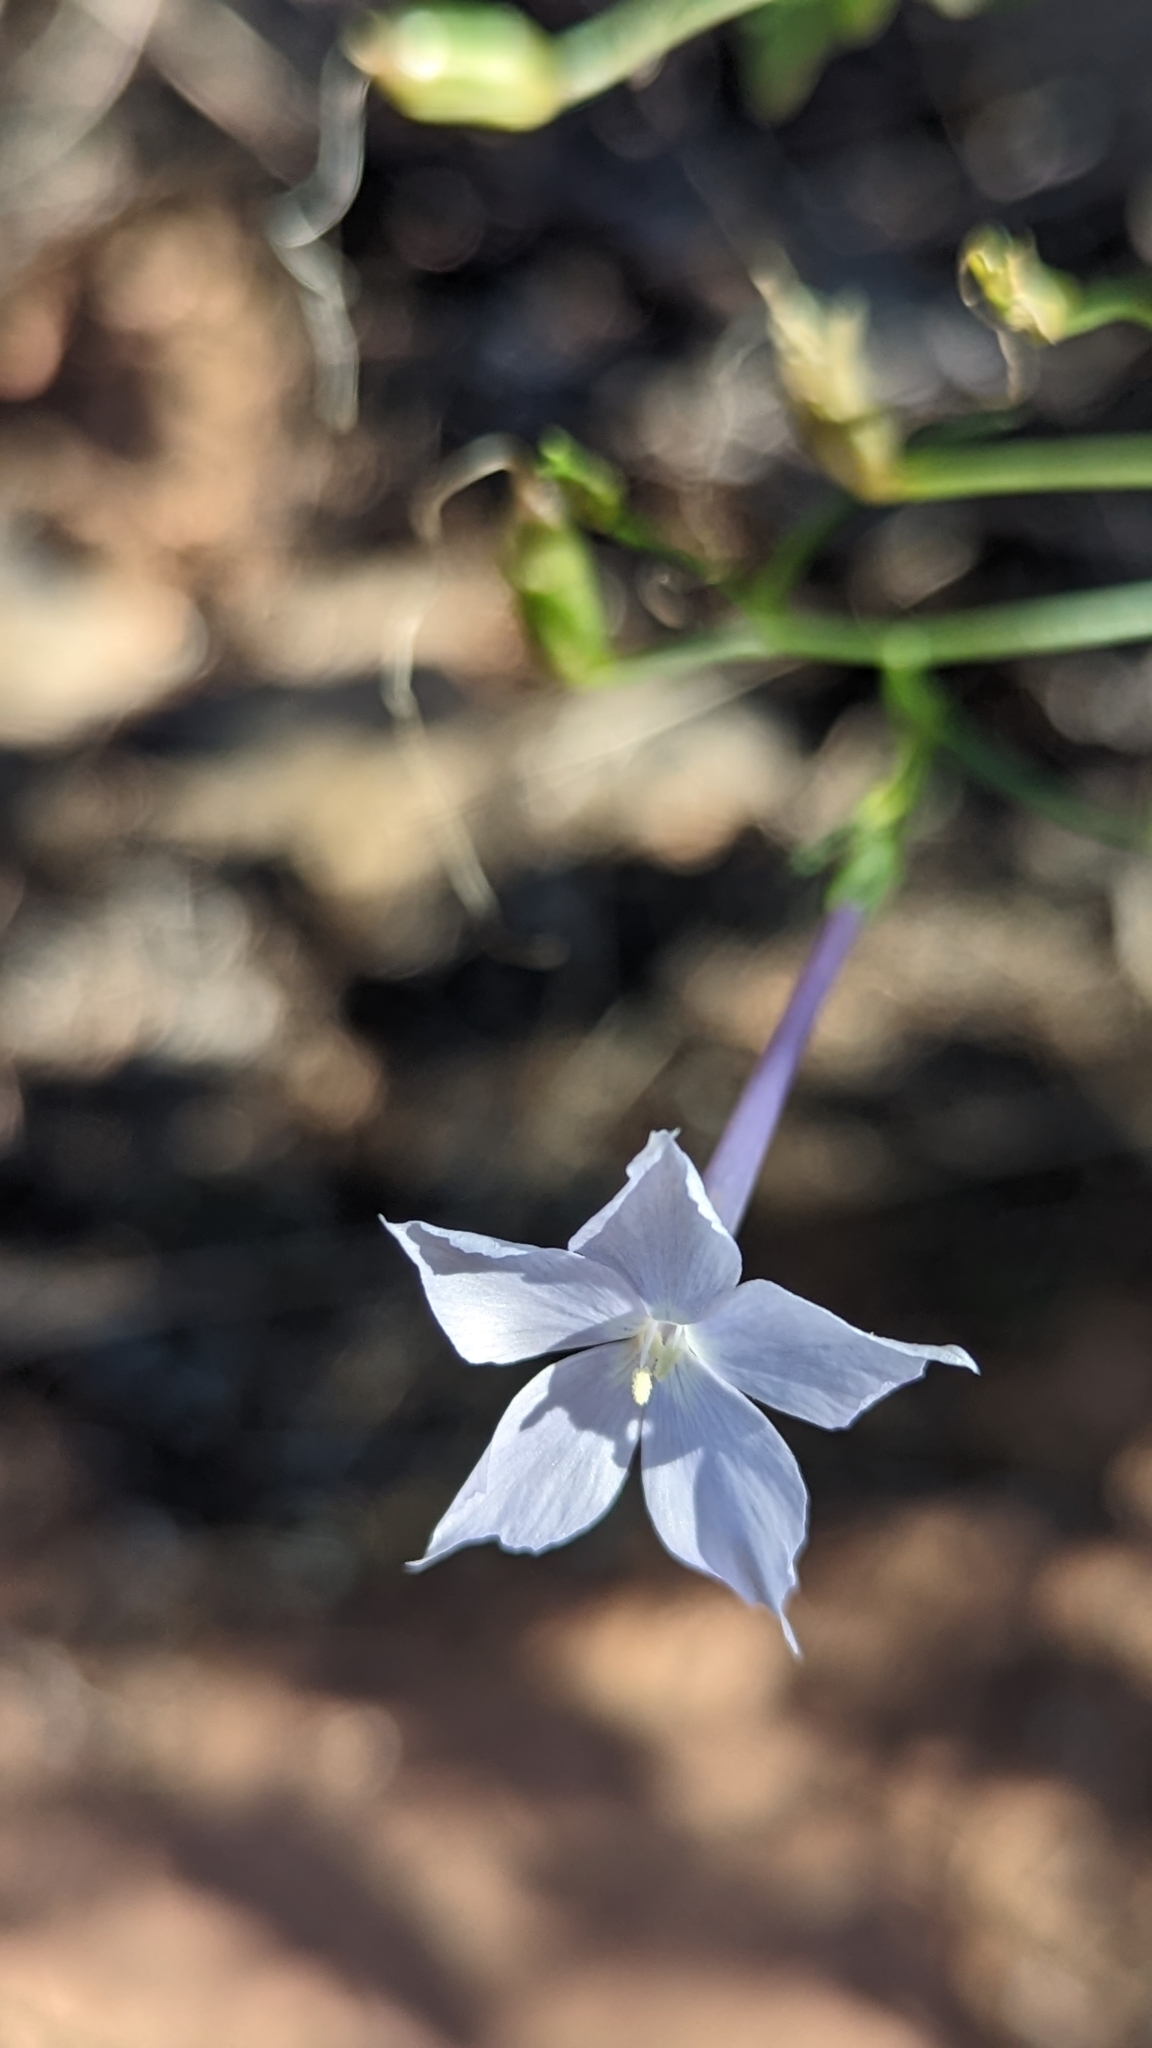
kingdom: Plantae
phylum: Tracheophyta
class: Magnoliopsida
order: Ericales
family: Polemoniaceae
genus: Ipomopsis
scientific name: Ipomopsis longiflora
